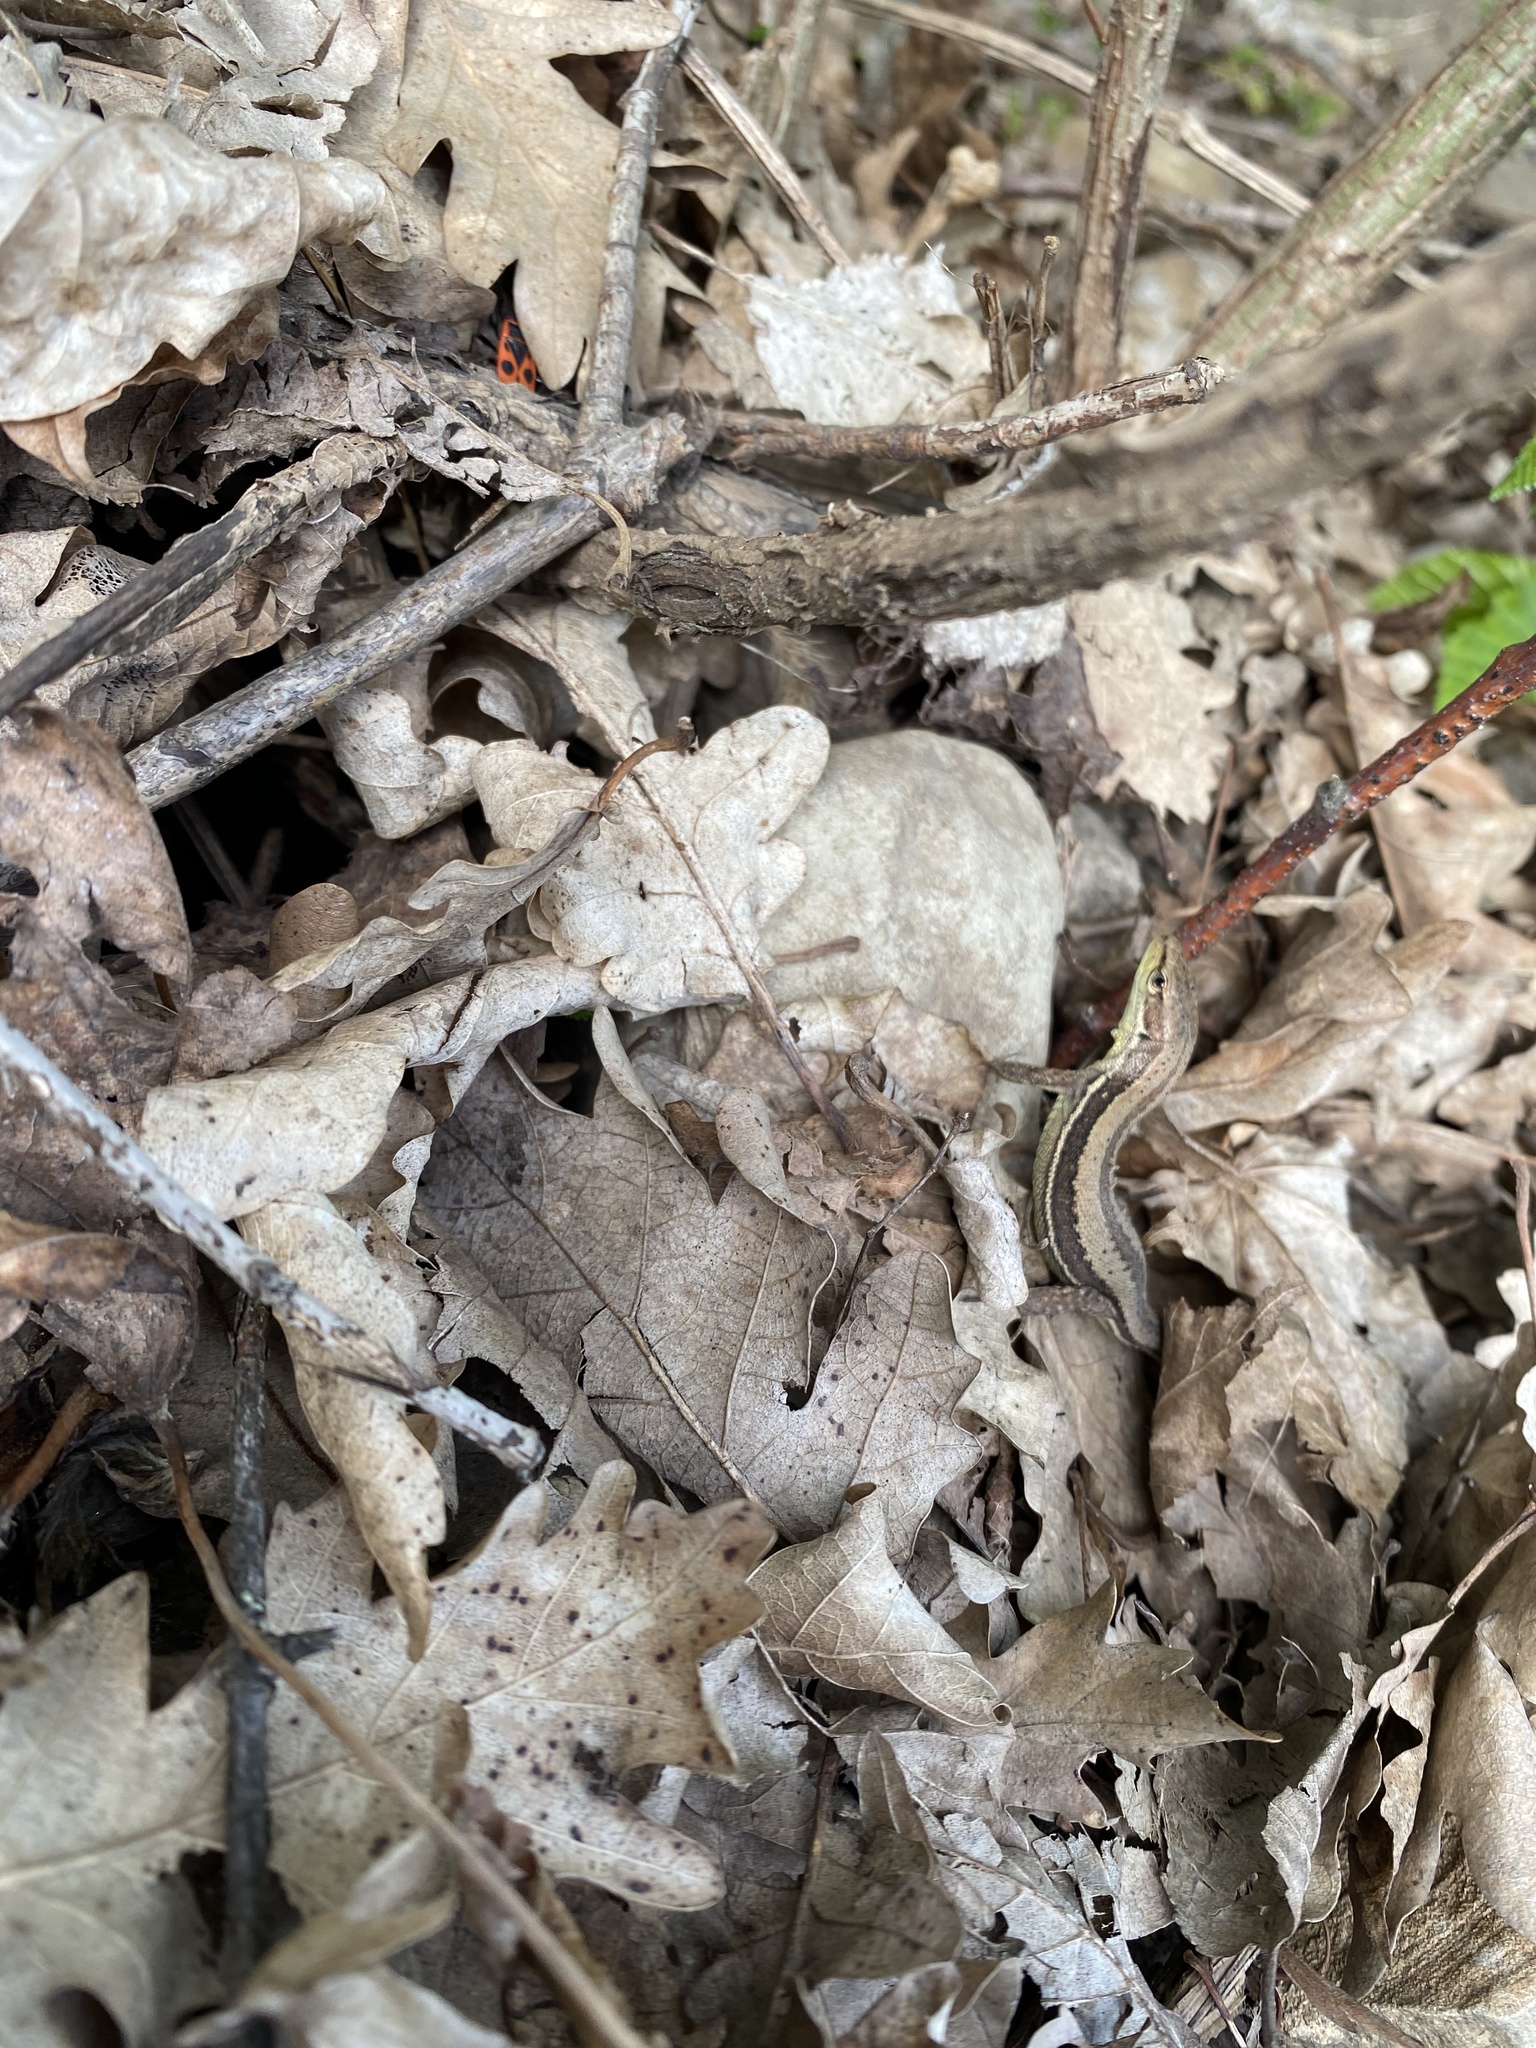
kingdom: Animalia
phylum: Chordata
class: Squamata
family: Lacertidae
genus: Darevskia
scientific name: Darevskia praticola
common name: Meadow lizard
